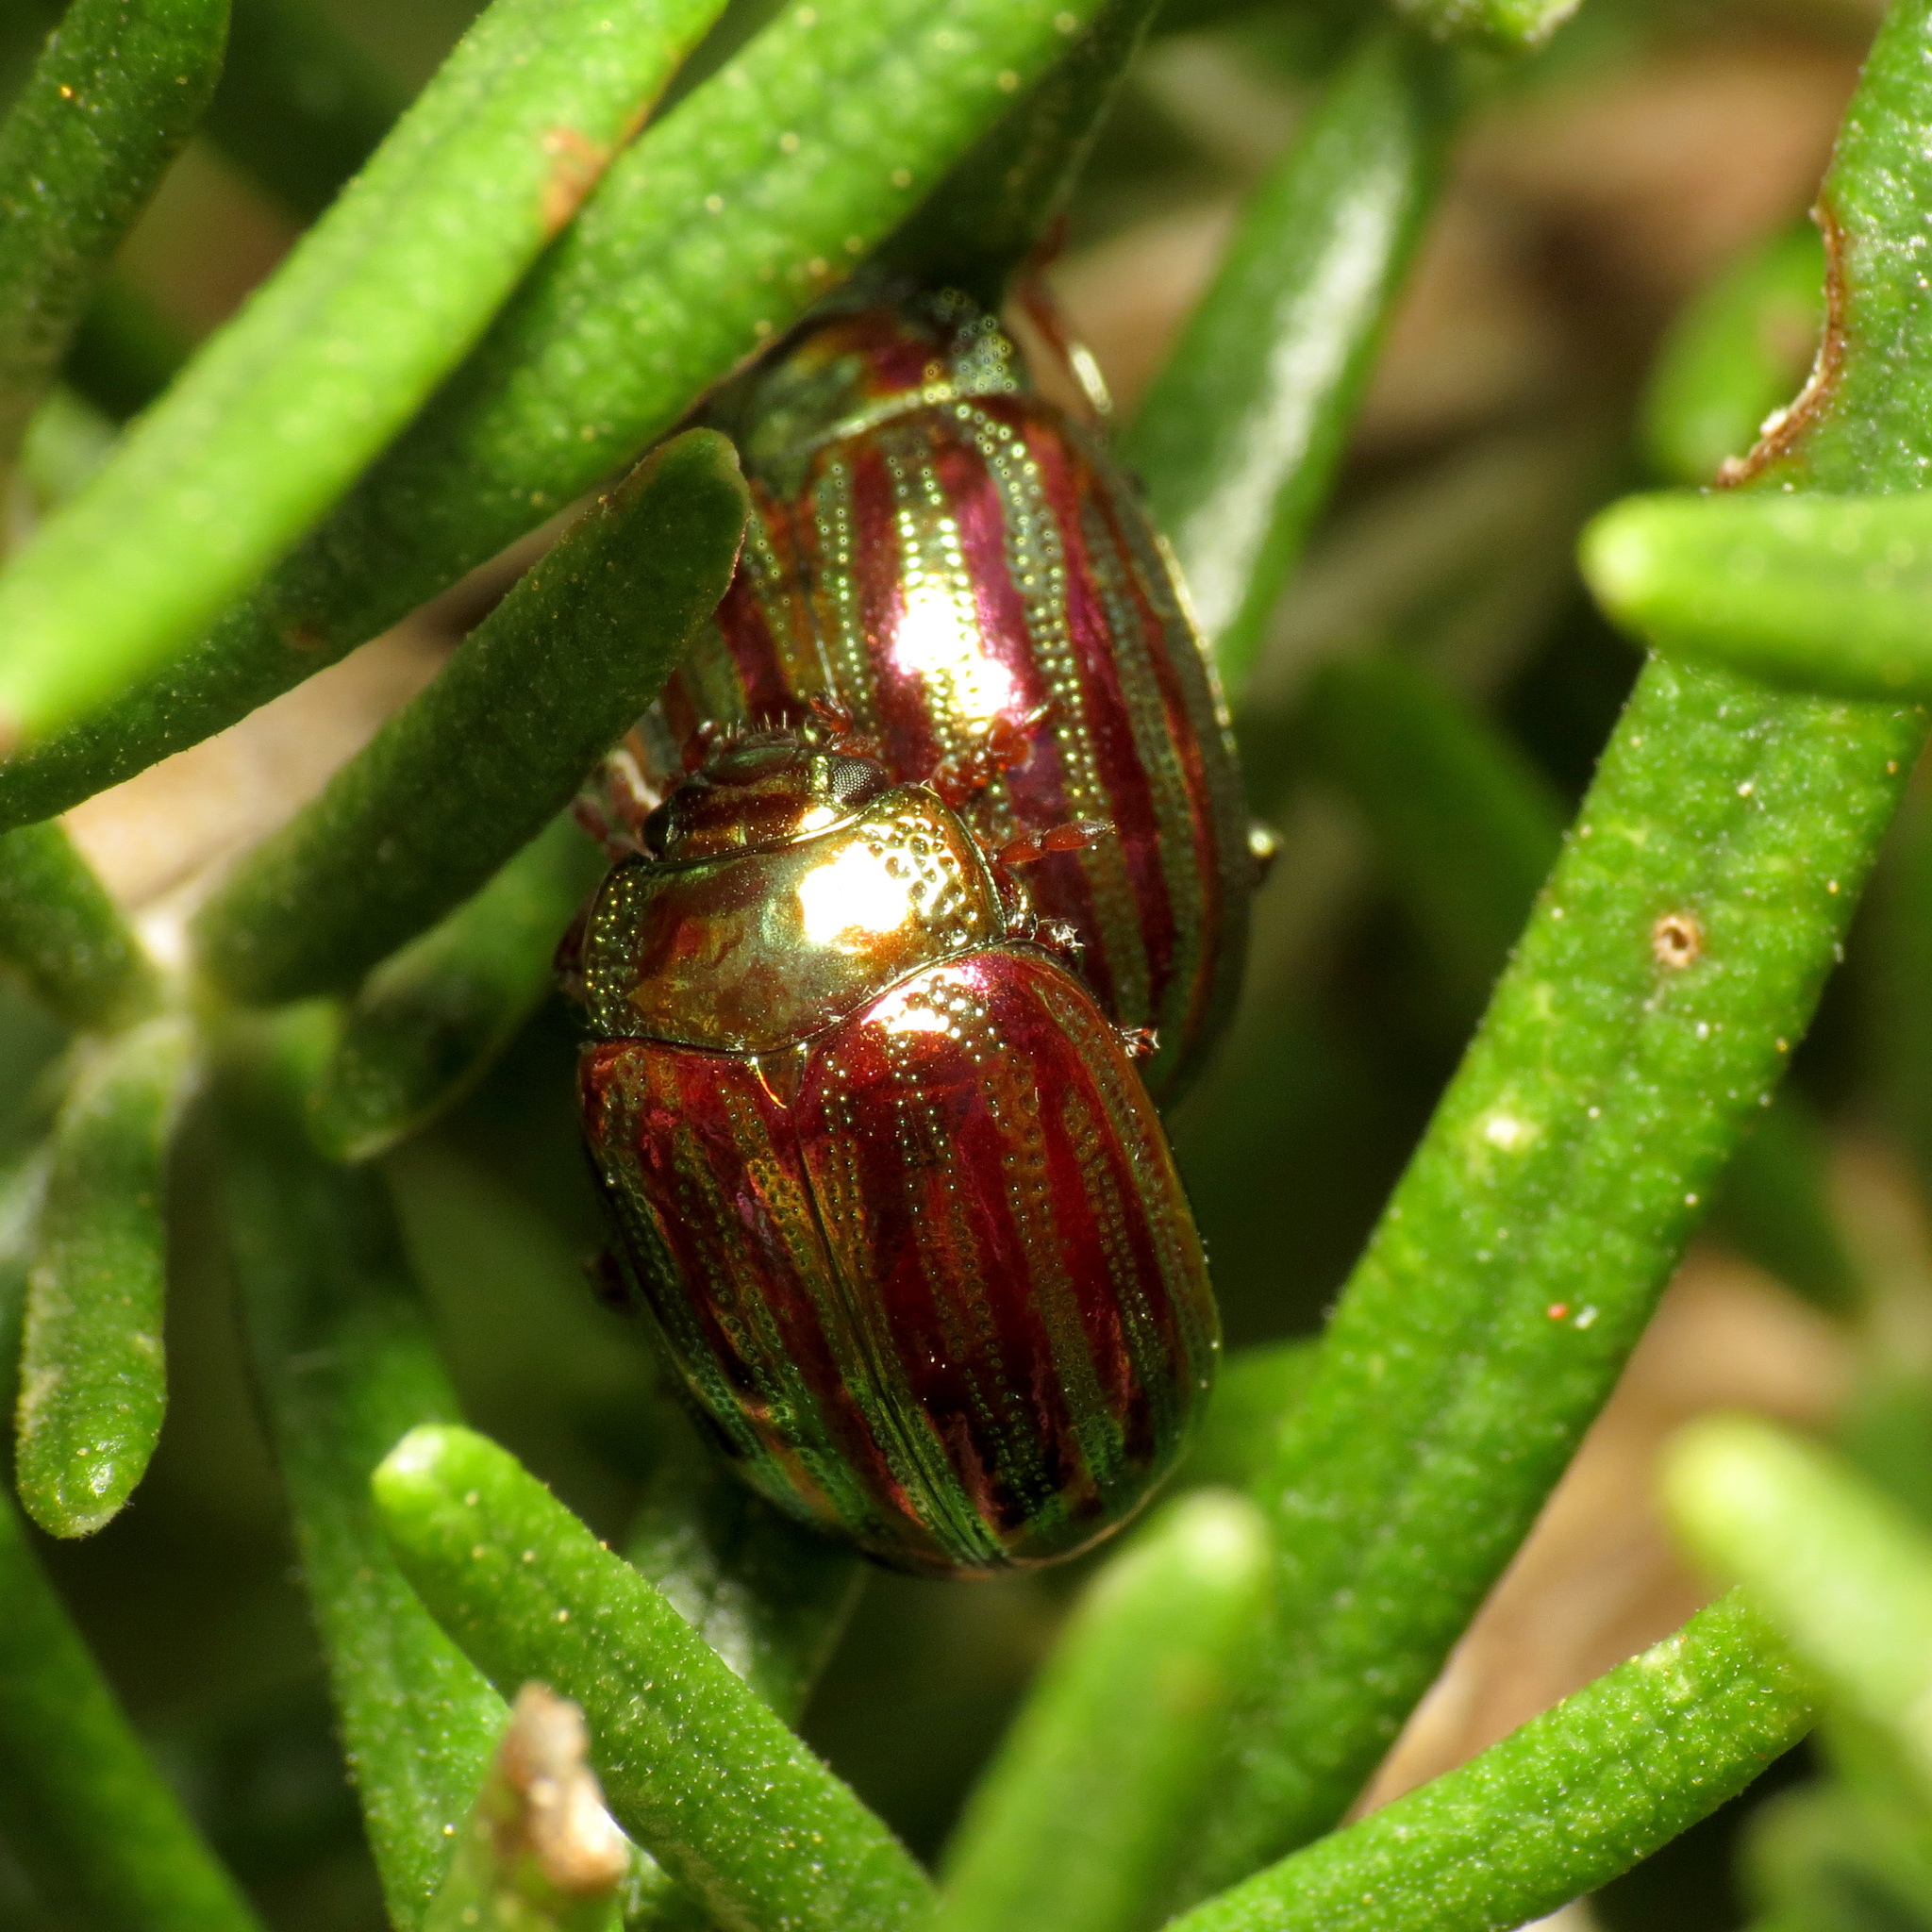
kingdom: Animalia
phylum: Arthropoda
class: Insecta
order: Coleoptera
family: Chrysomelidae
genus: Chrysolina
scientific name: Chrysolina americana
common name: Rosemary beetle
